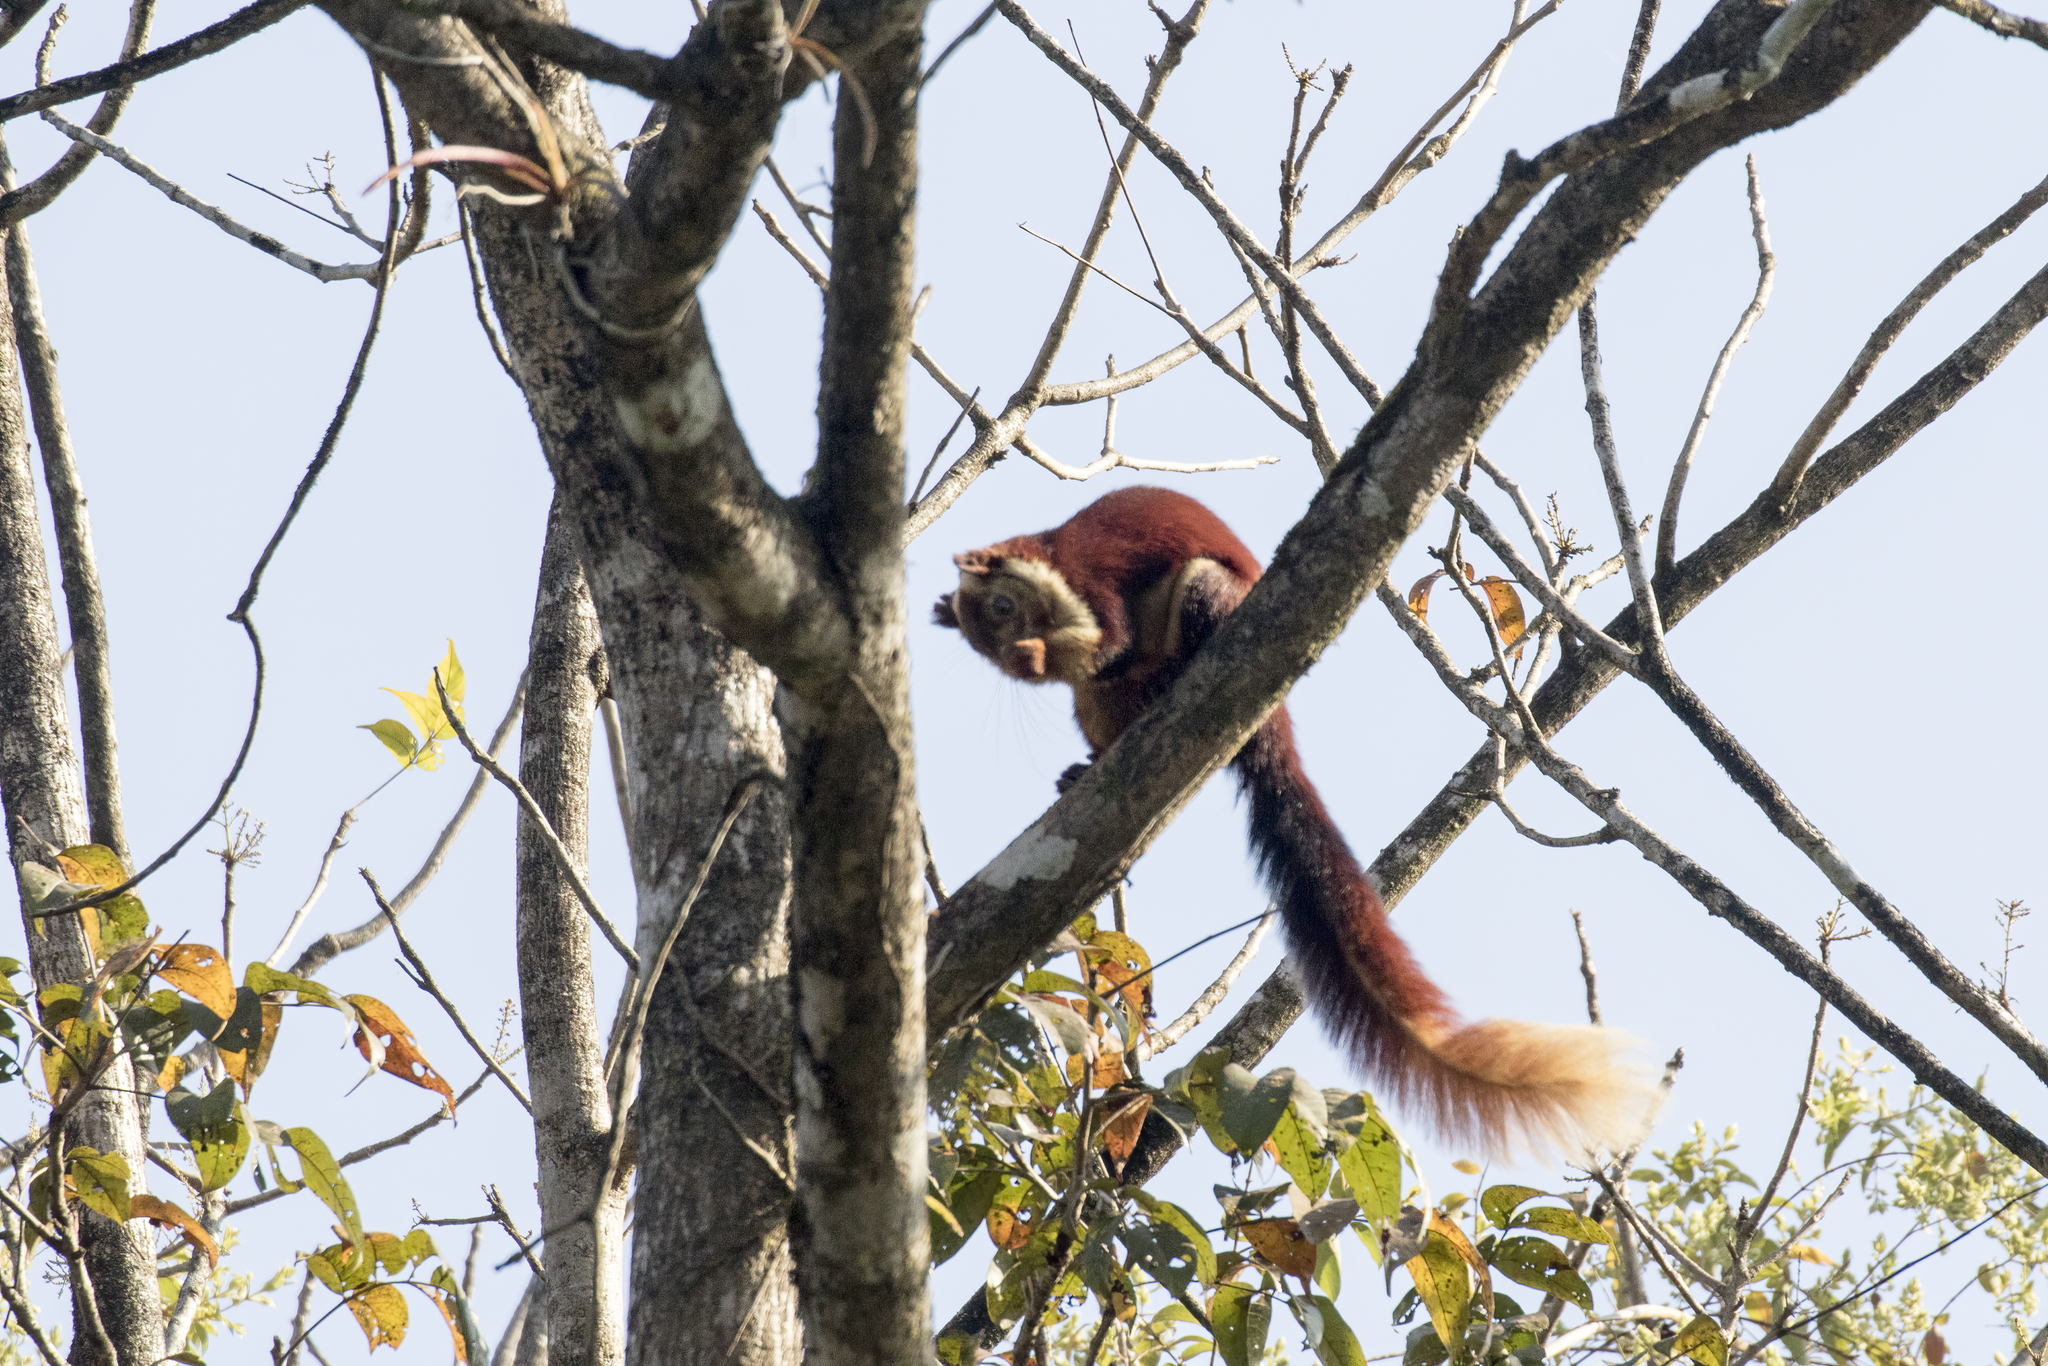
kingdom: Animalia
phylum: Chordata
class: Mammalia
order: Rodentia
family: Sciuridae
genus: Ratufa
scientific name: Ratufa indica
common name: Indian giant squirrel
